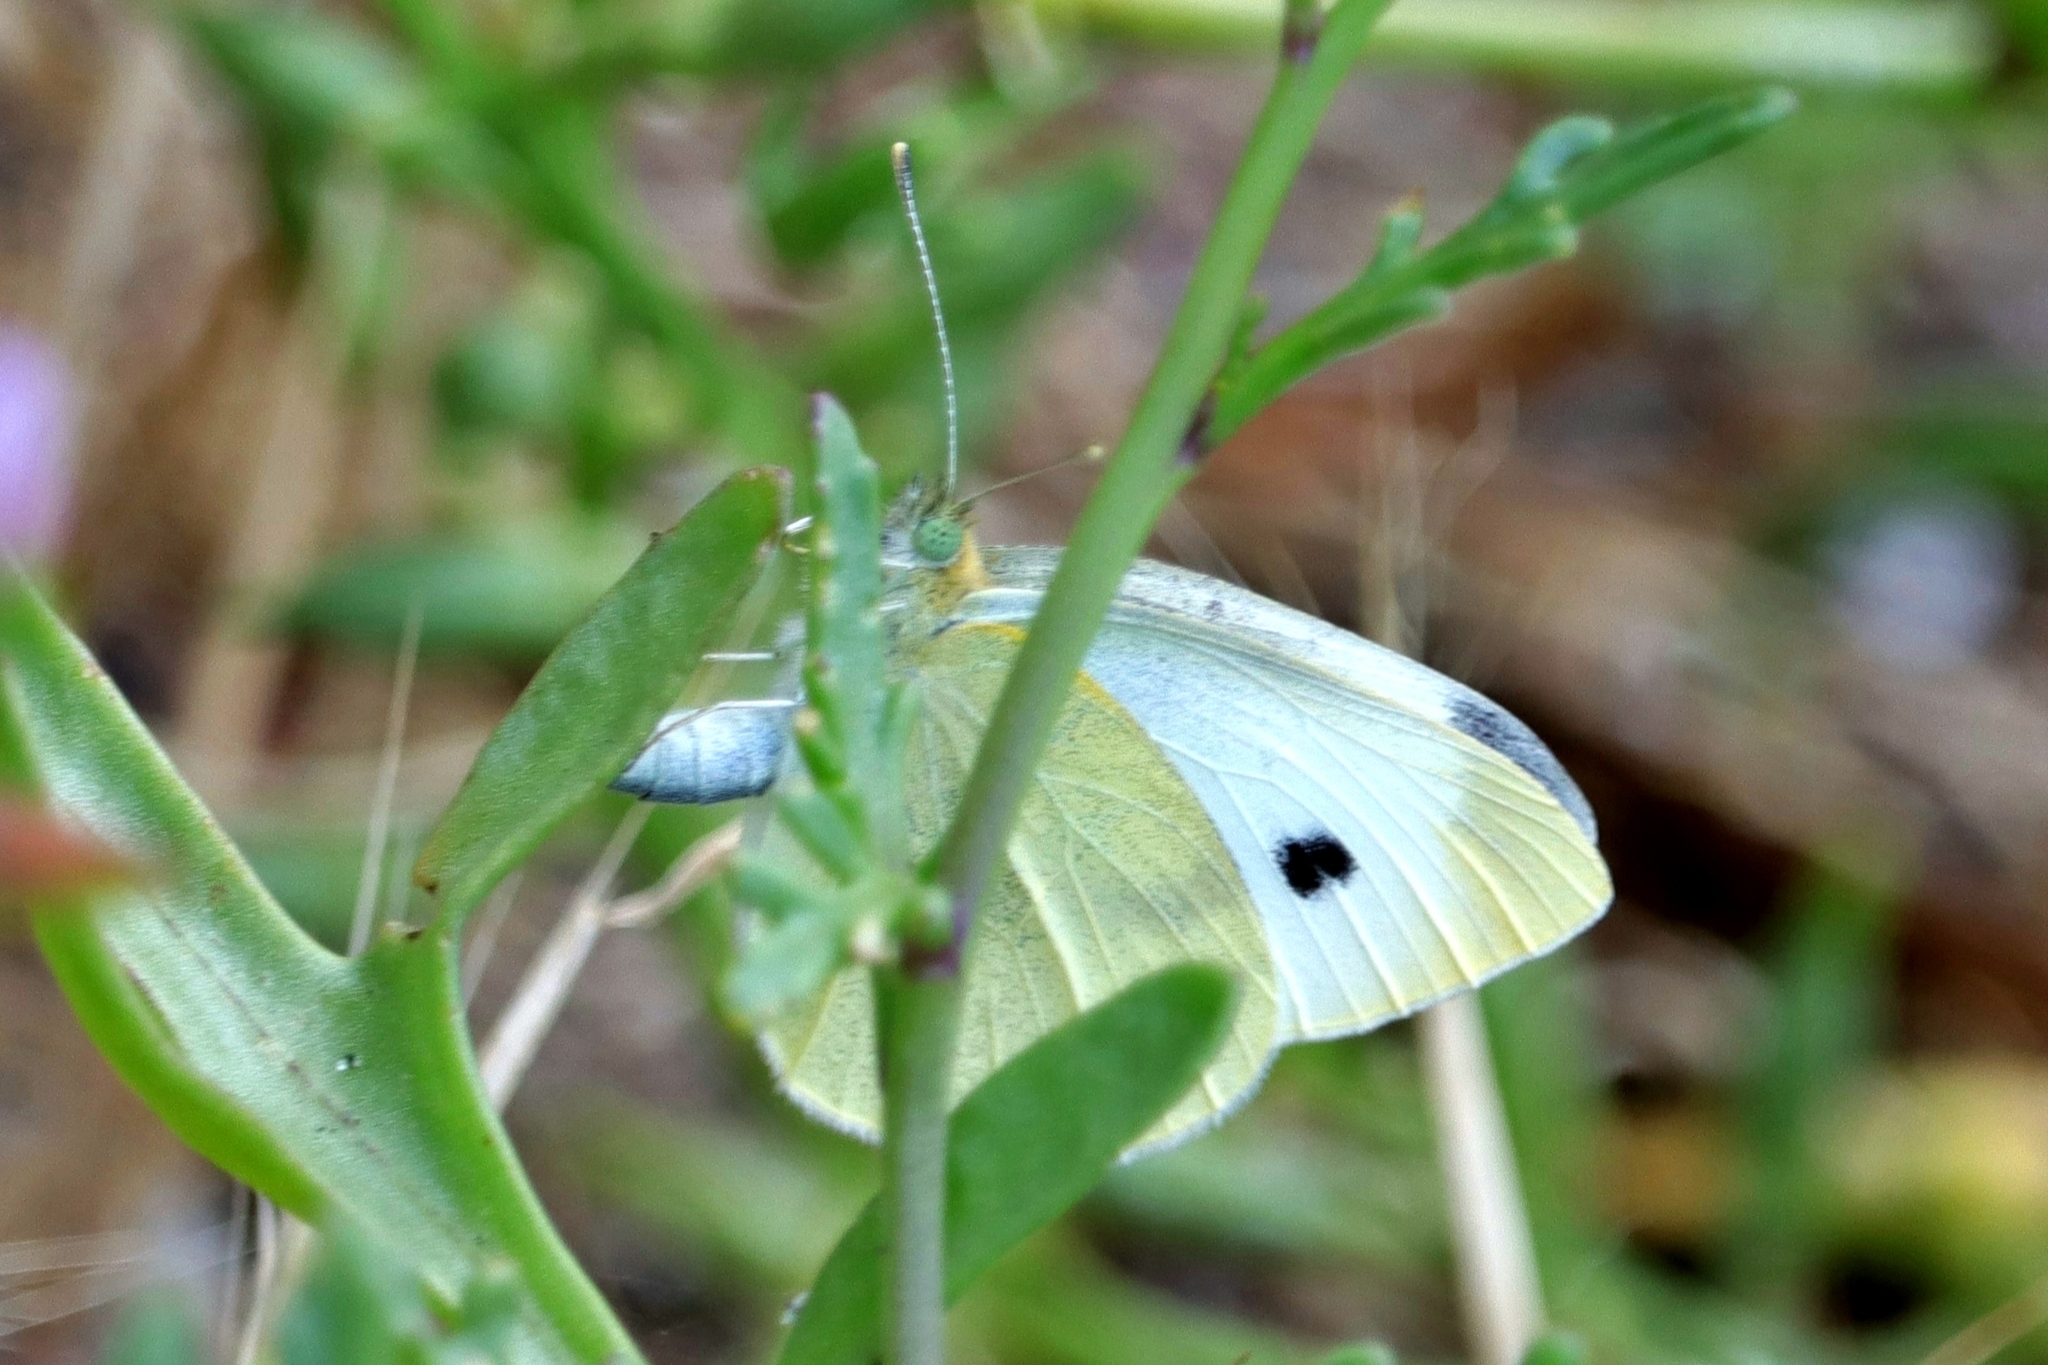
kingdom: Animalia
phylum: Arthropoda
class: Insecta
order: Lepidoptera
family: Pieridae
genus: Pieris
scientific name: Pieris rapae
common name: Small white
